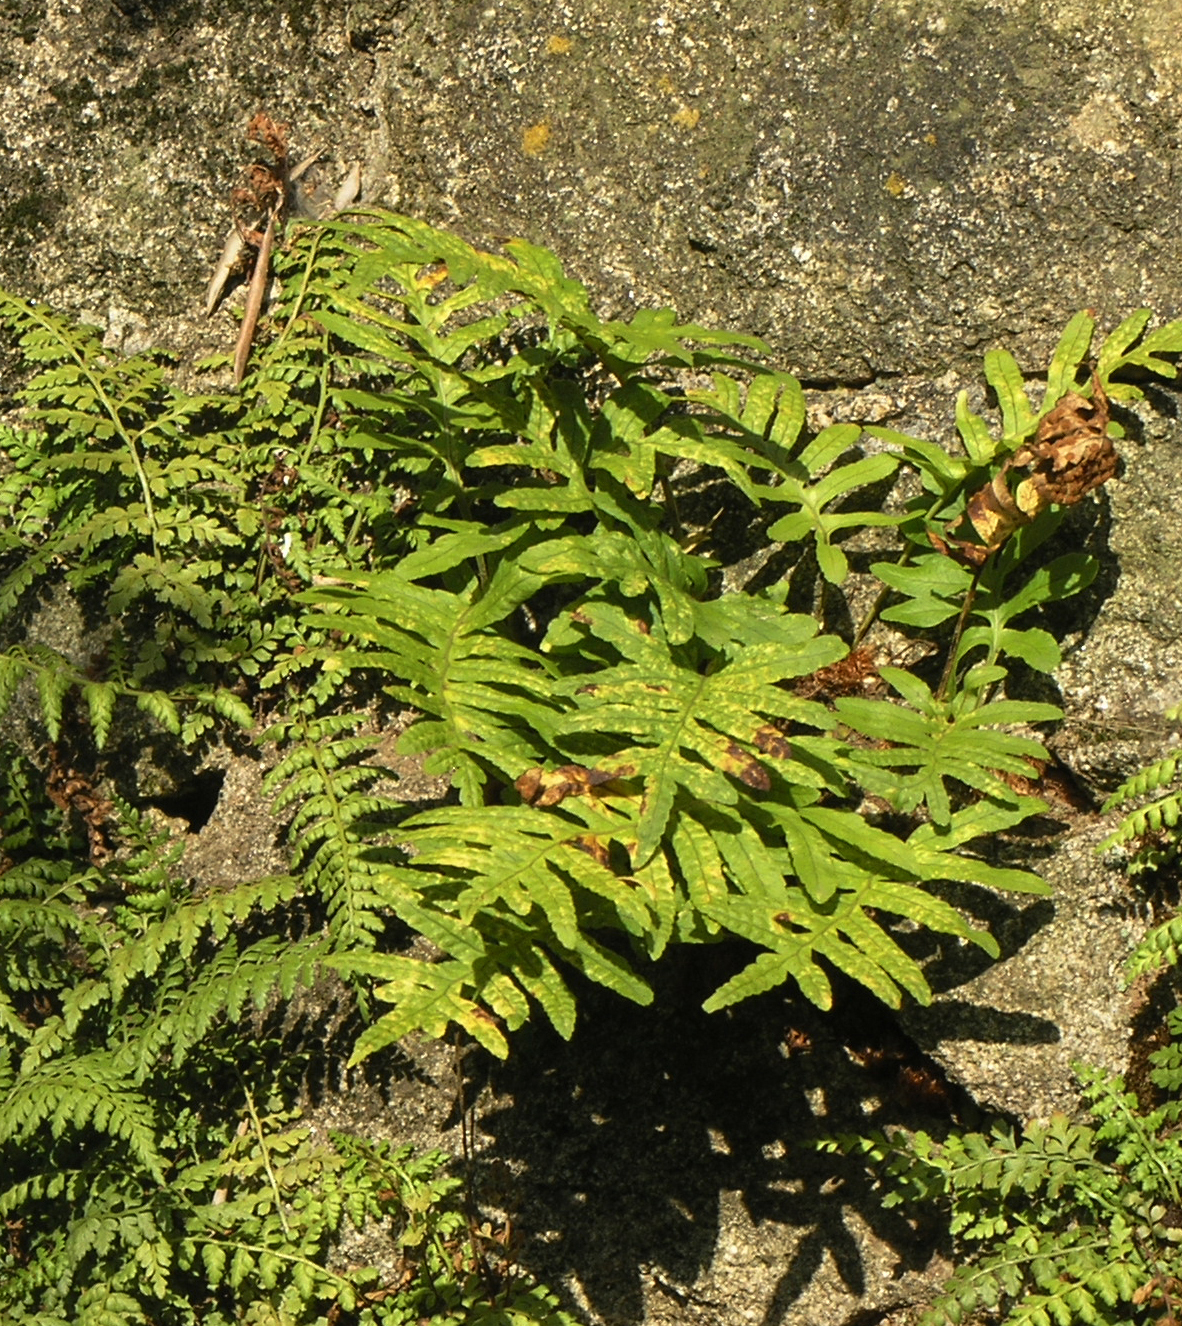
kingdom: Plantae
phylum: Tracheophyta
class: Polypodiopsida
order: Polypodiales
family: Polypodiaceae
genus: Polypodium
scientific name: Polypodium cambricum
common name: Southern polypody
